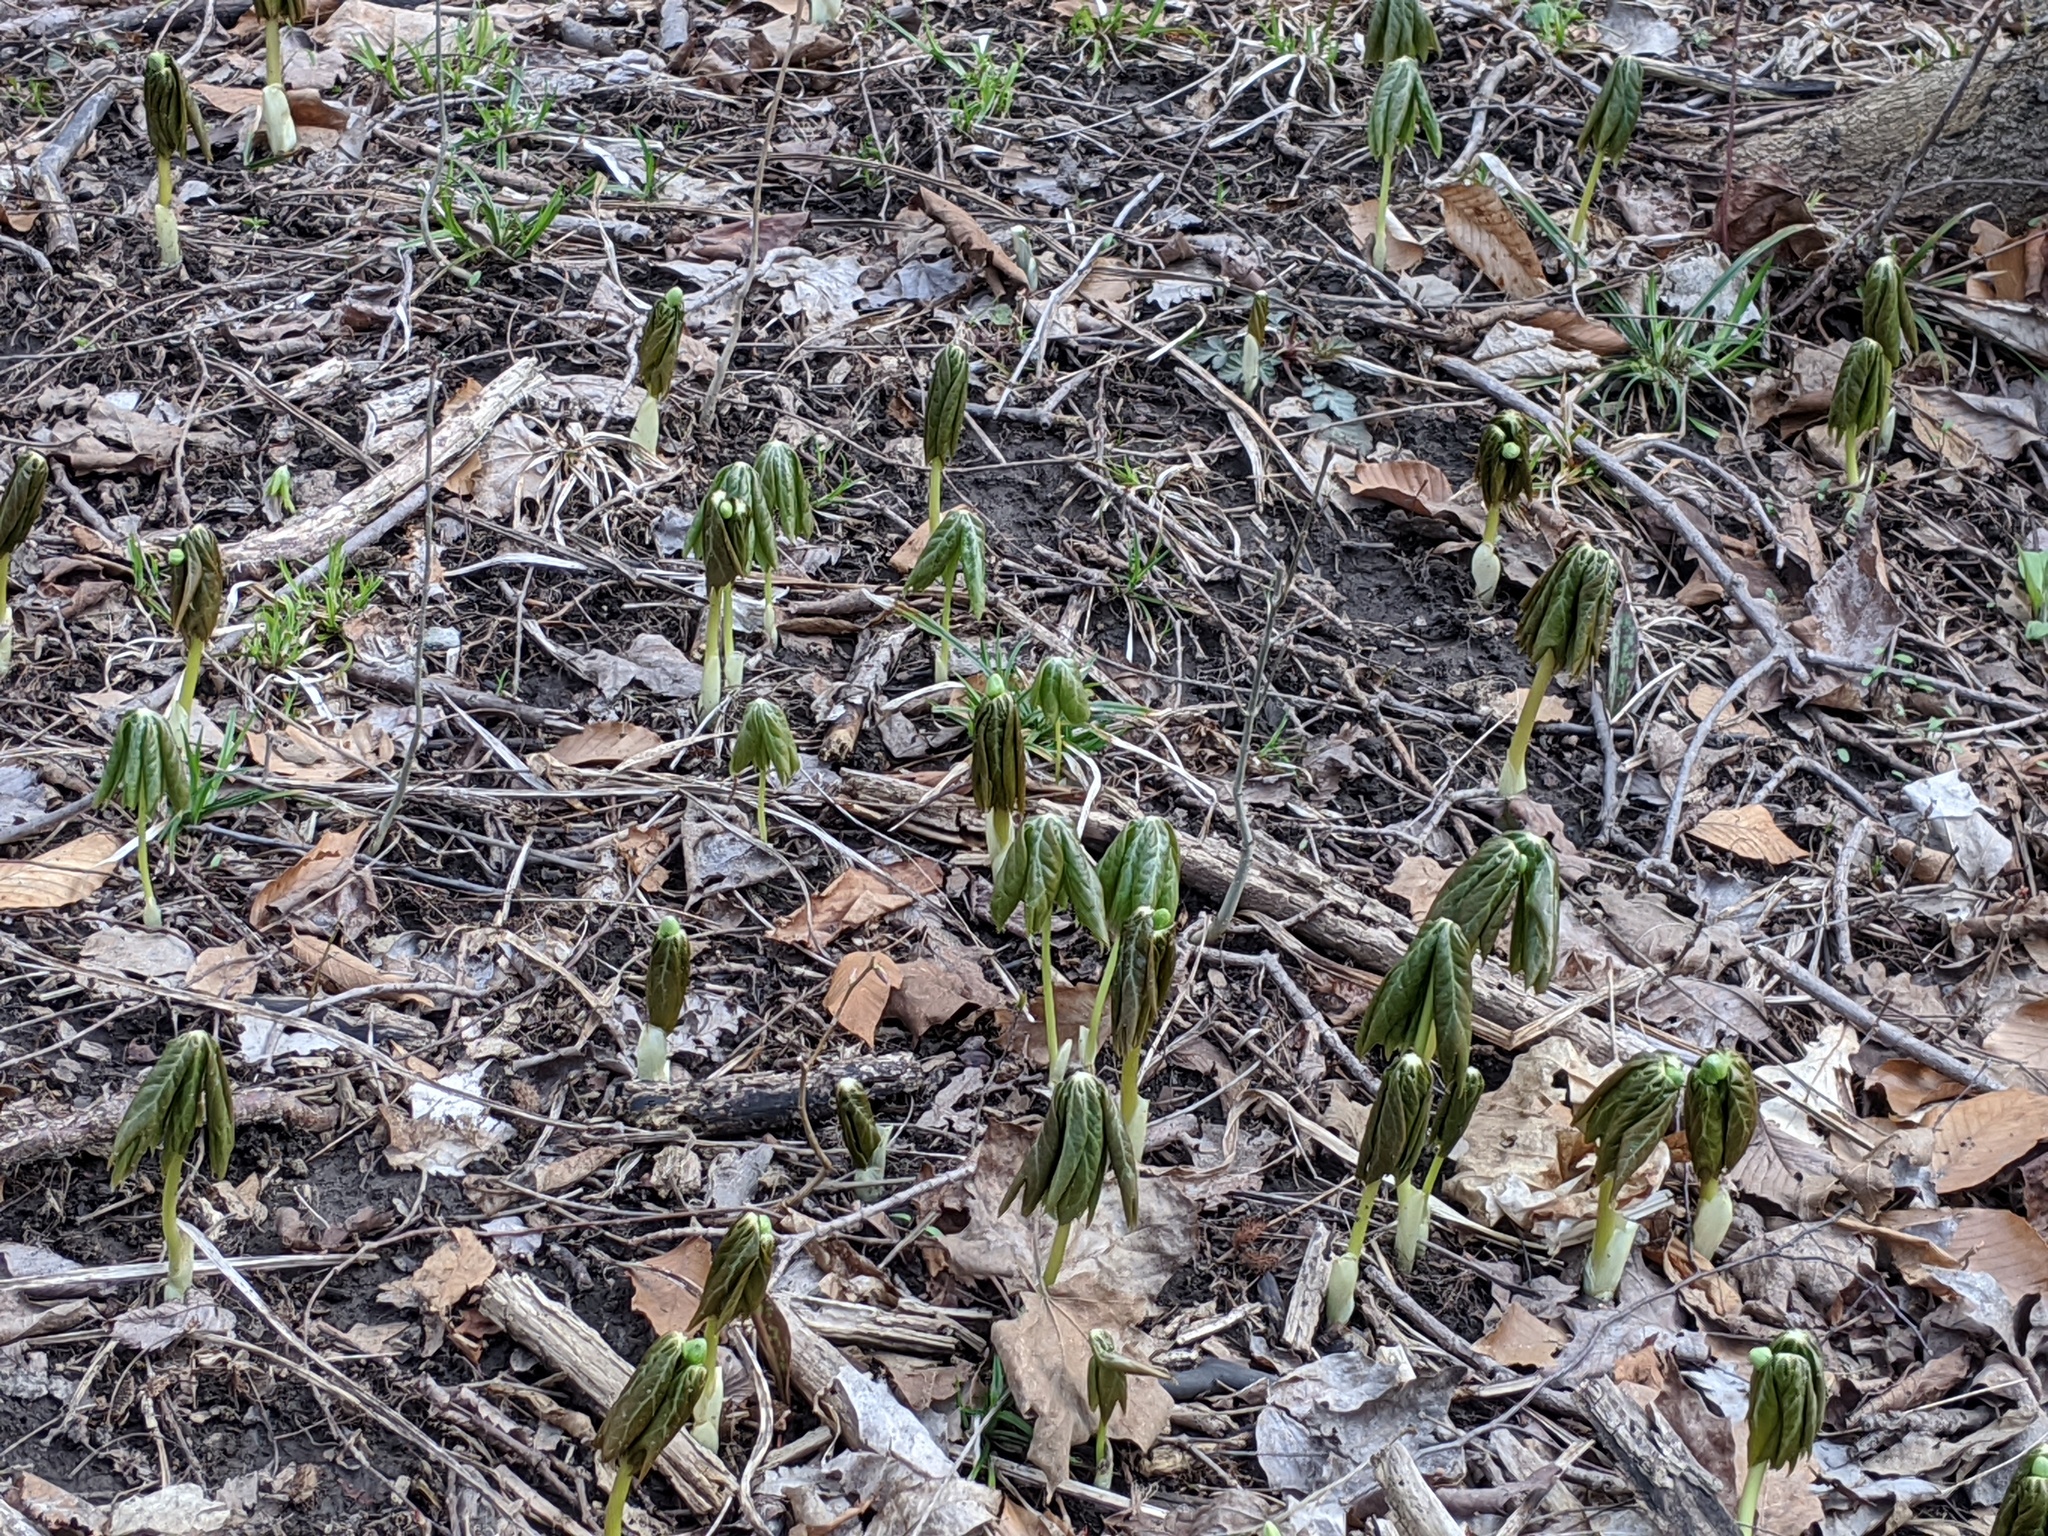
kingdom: Plantae
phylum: Tracheophyta
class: Magnoliopsida
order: Ranunculales
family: Berberidaceae
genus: Podophyllum
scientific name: Podophyllum peltatum
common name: Wild mandrake
